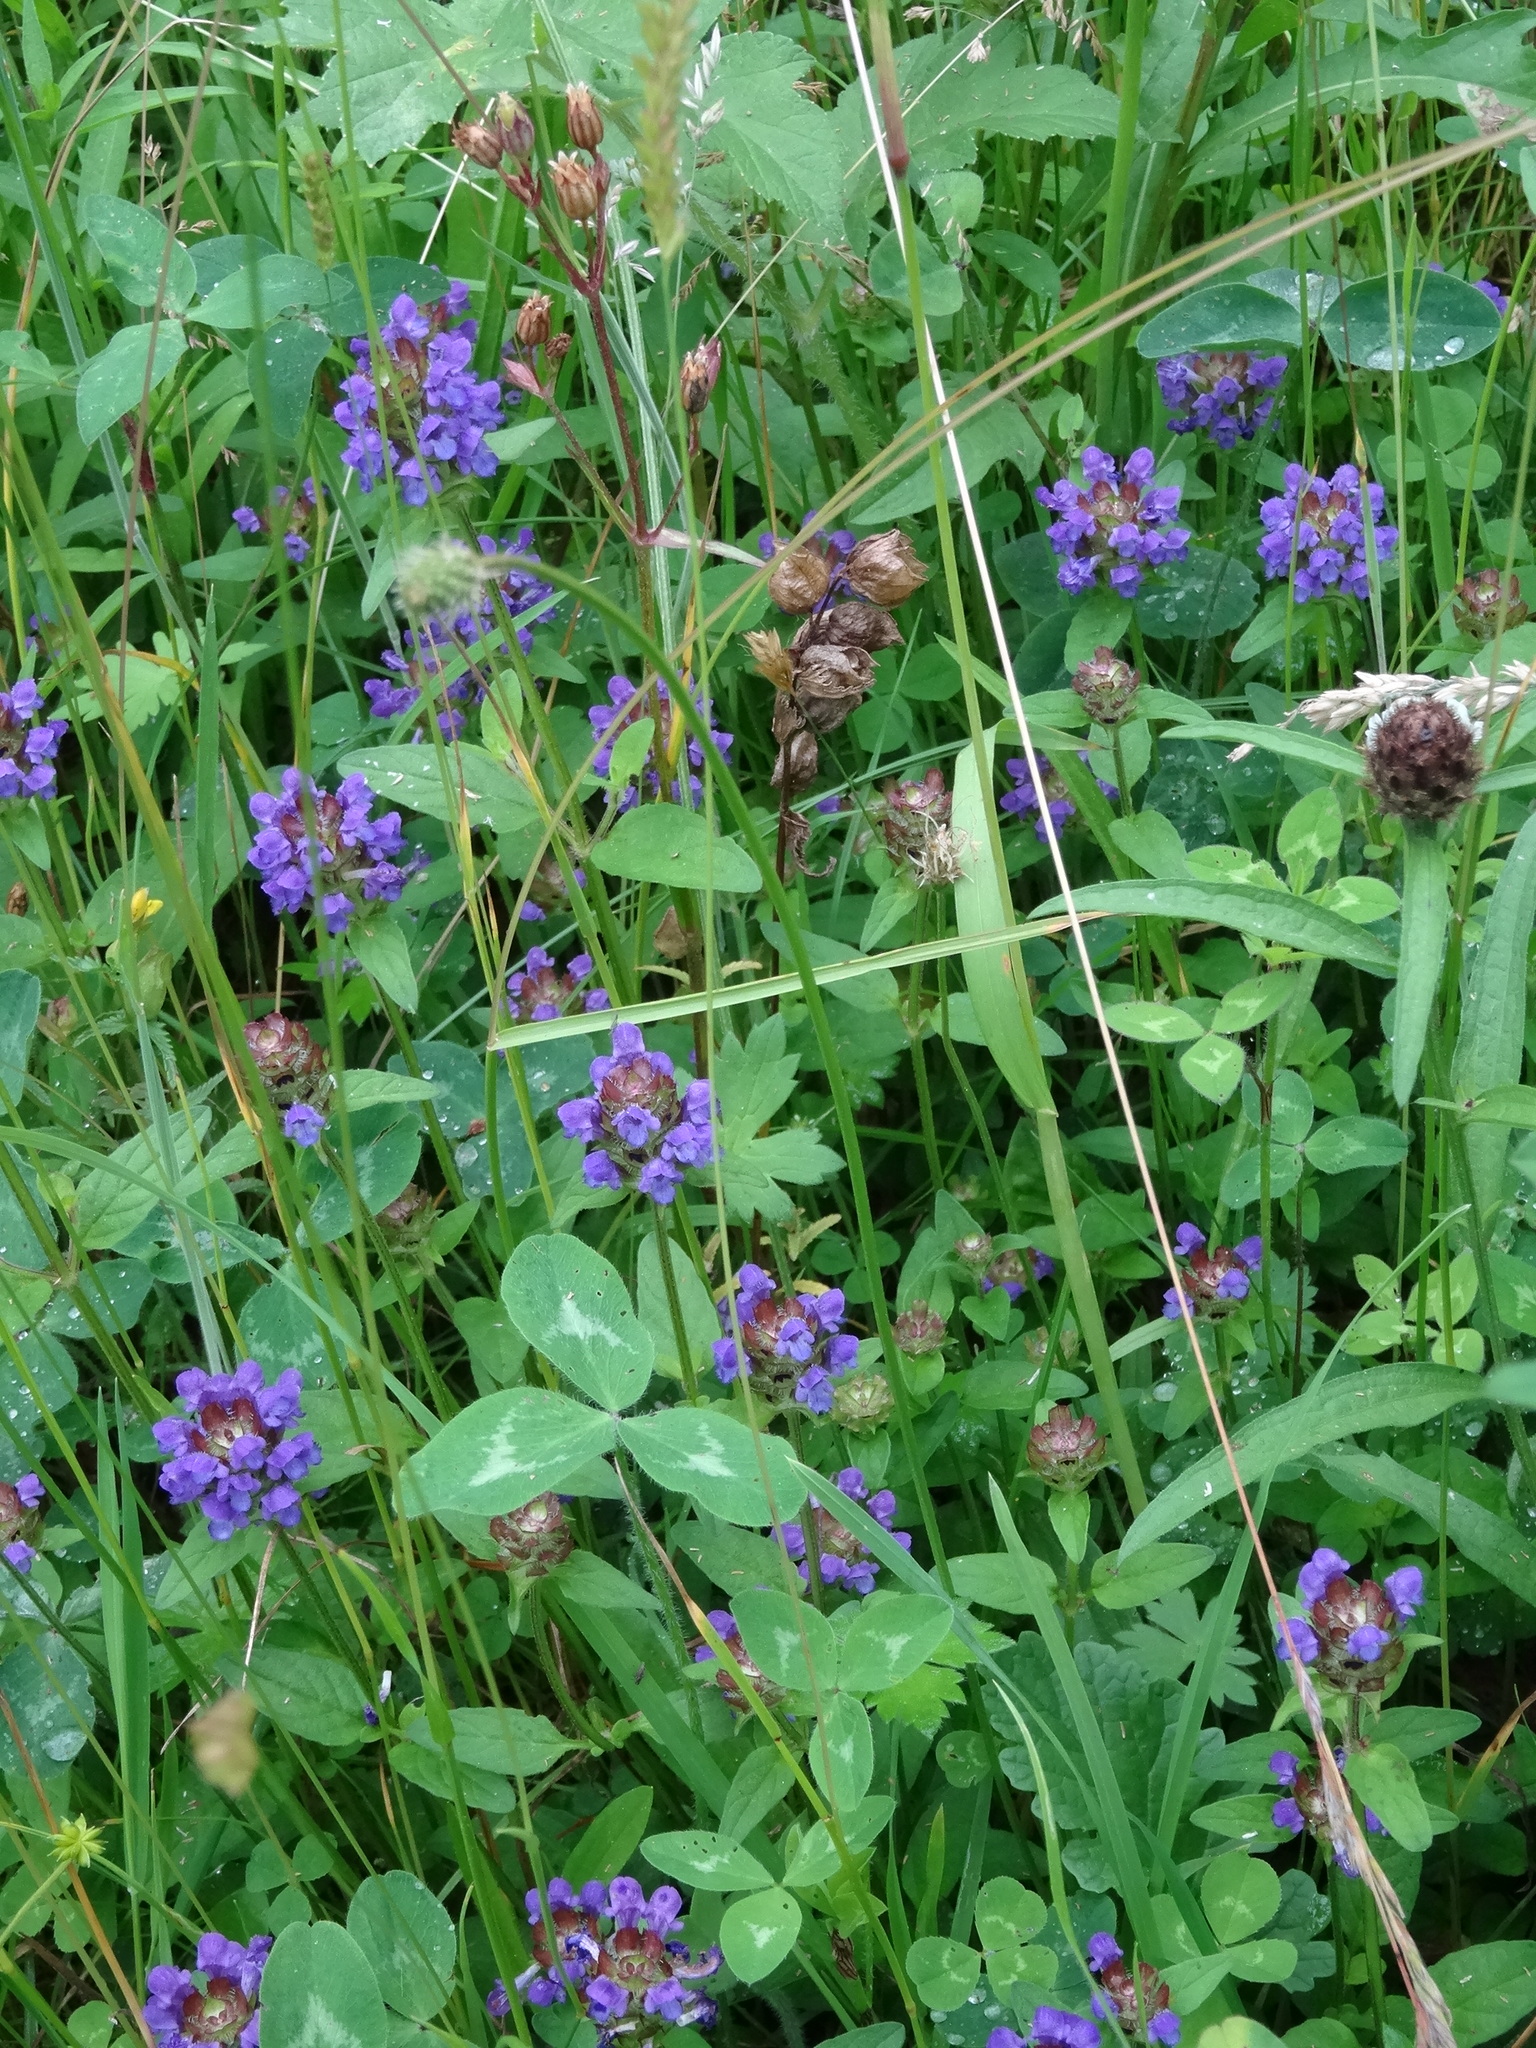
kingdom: Plantae
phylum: Tracheophyta
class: Magnoliopsida
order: Lamiales
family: Lamiaceae
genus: Prunella
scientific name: Prunella vulgaris
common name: Heal-all
